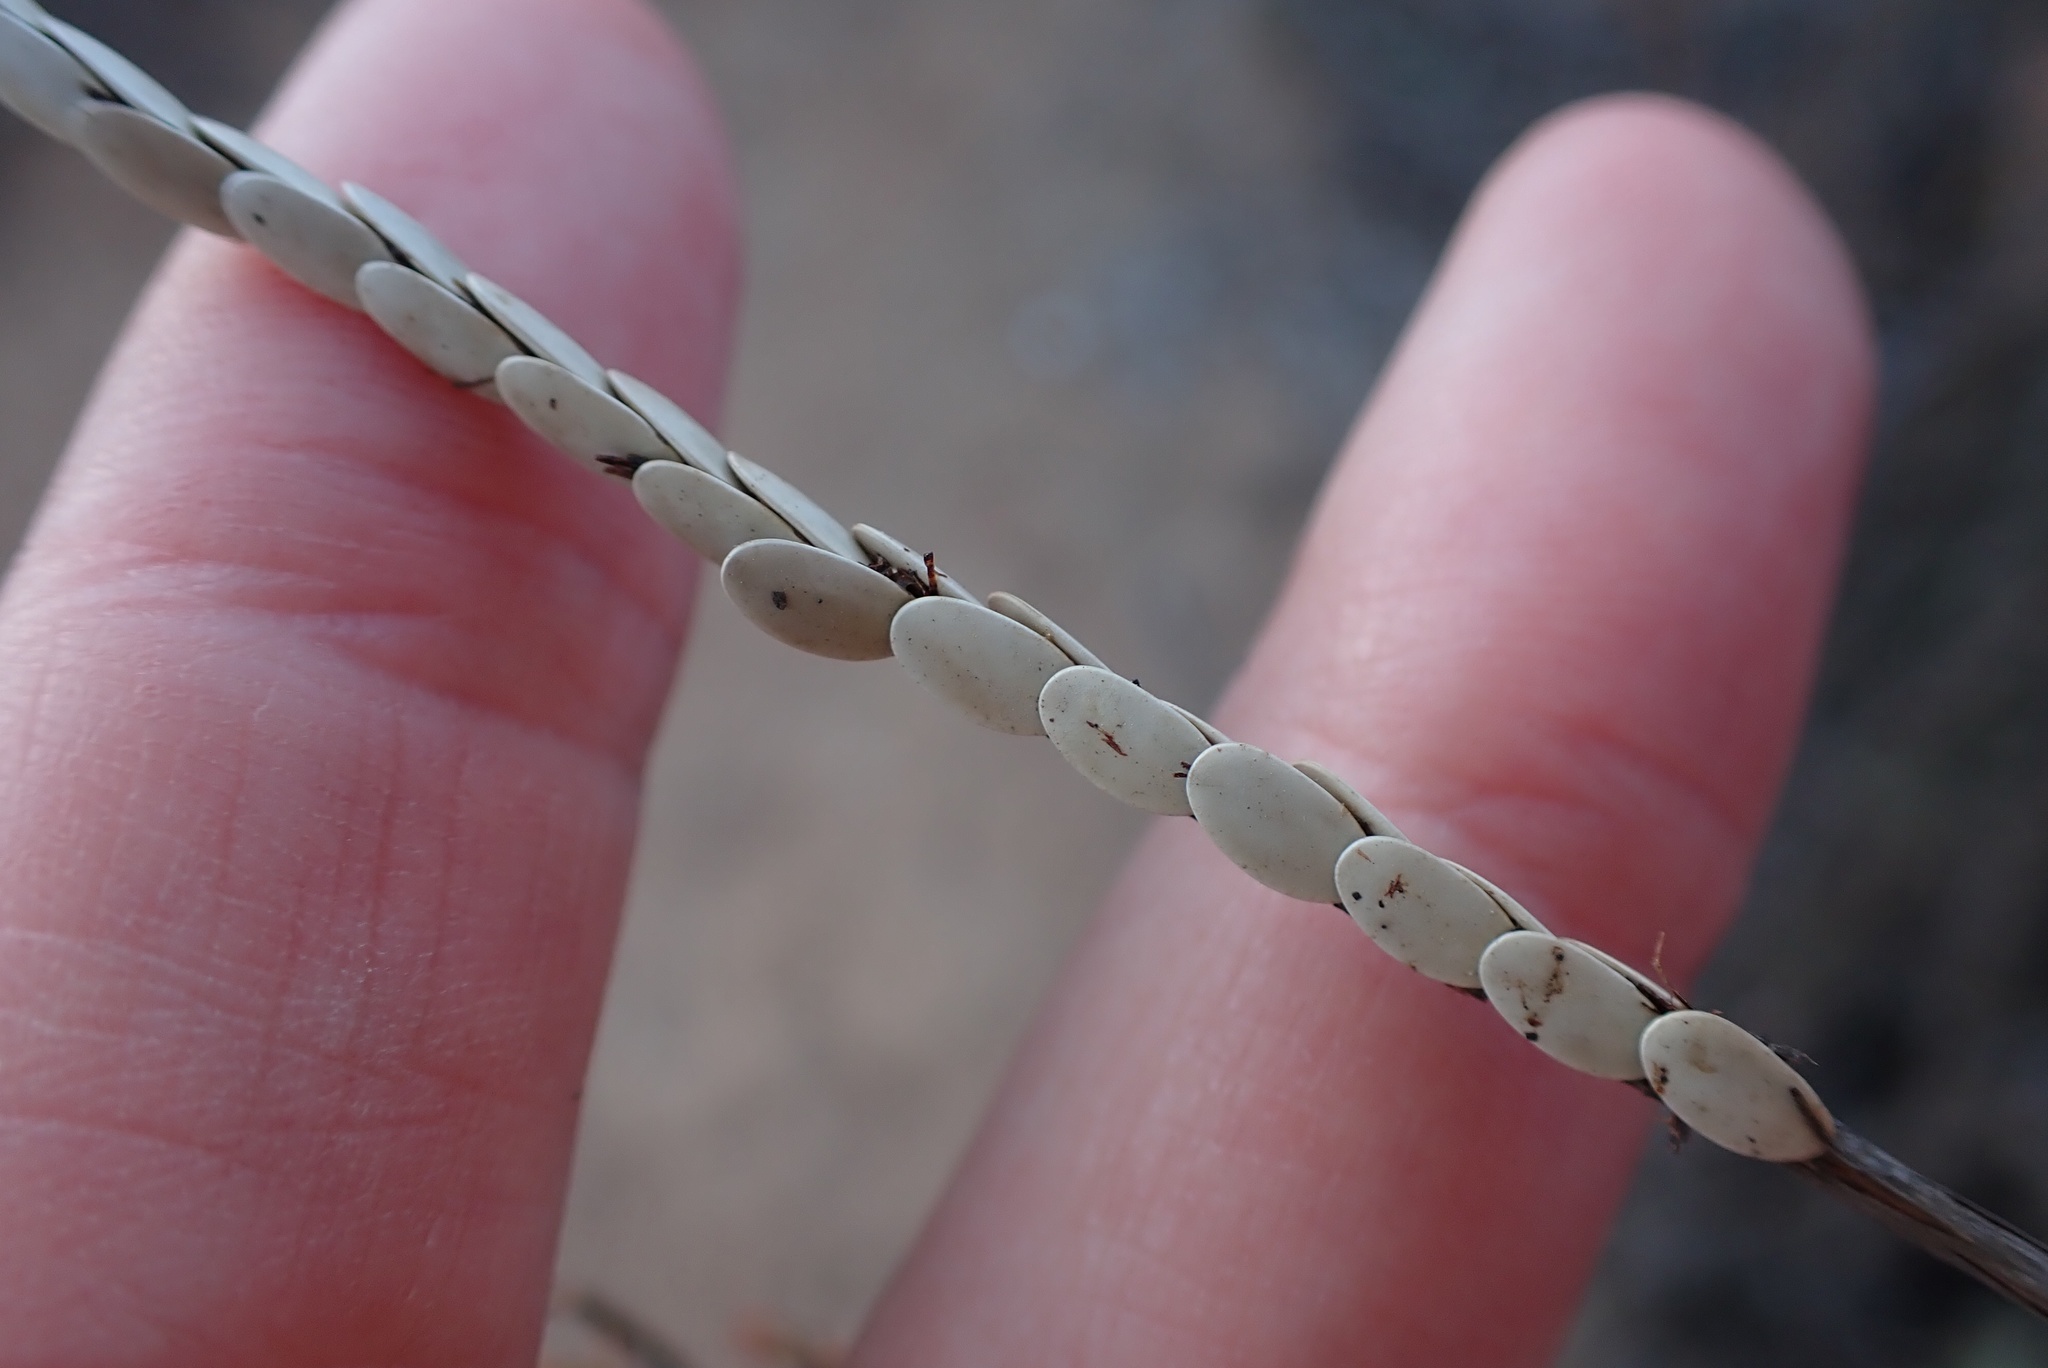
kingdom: Animalia
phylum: Arthropoda
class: Insecta
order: Orthoptera
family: Tettigoniidae
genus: Microcentrum
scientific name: Microcentrum
